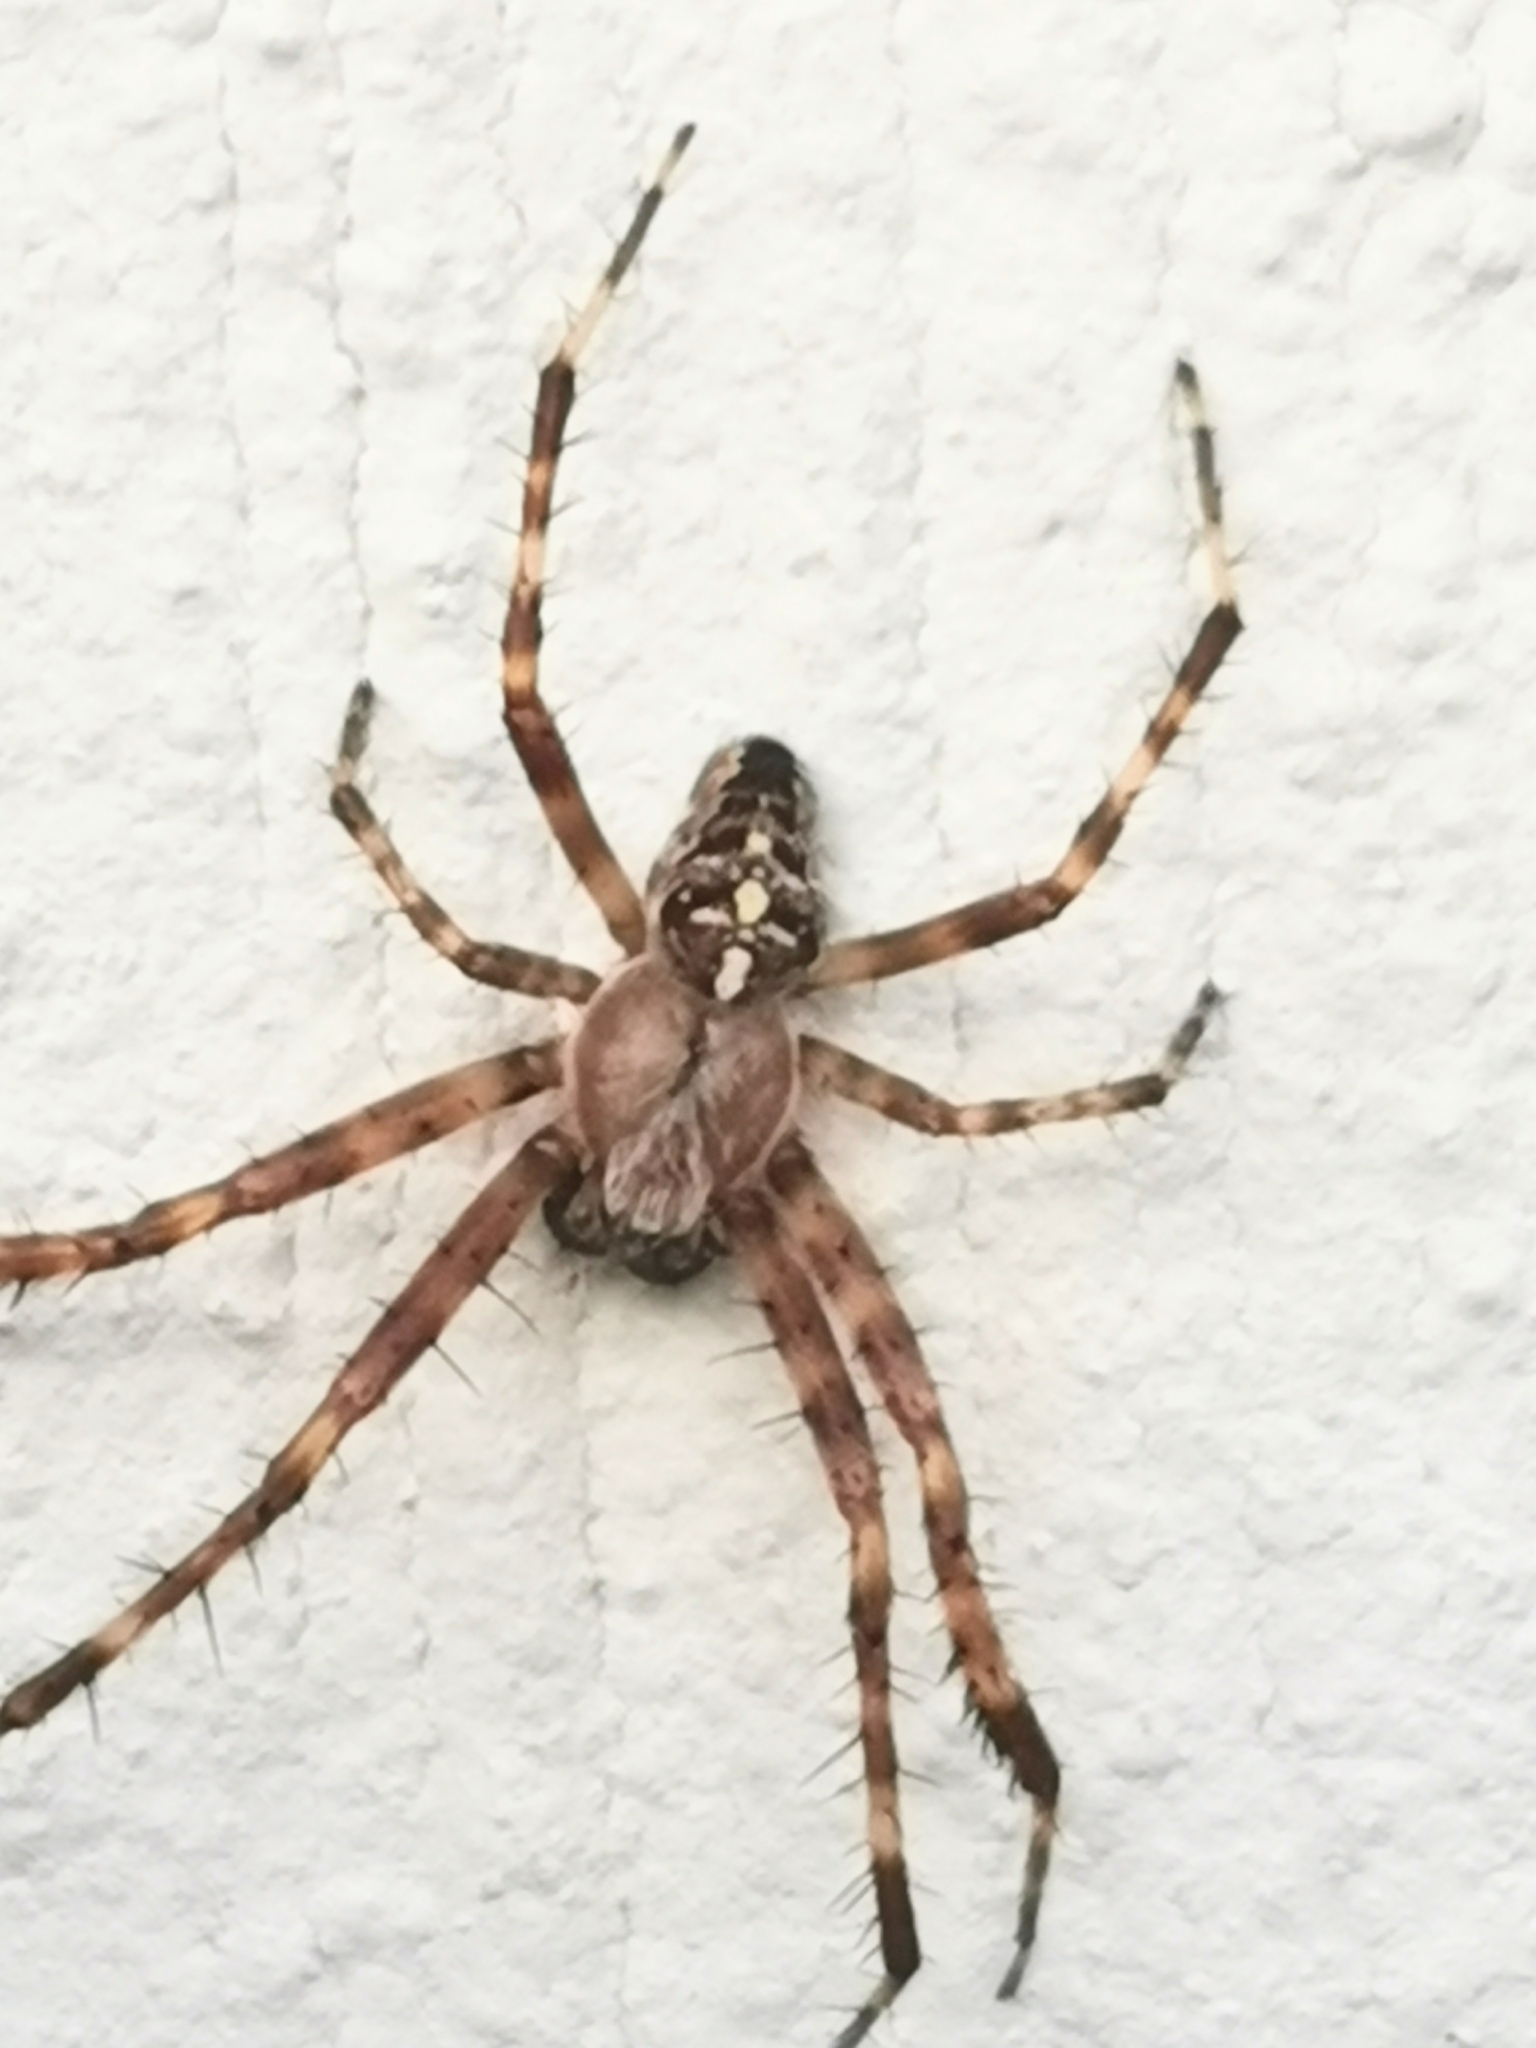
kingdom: Animalia
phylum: Arthropoda
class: Arachnida
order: Araneae
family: Araneidae
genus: Araneus
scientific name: Araneus diadematus
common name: Cross orbweaver
